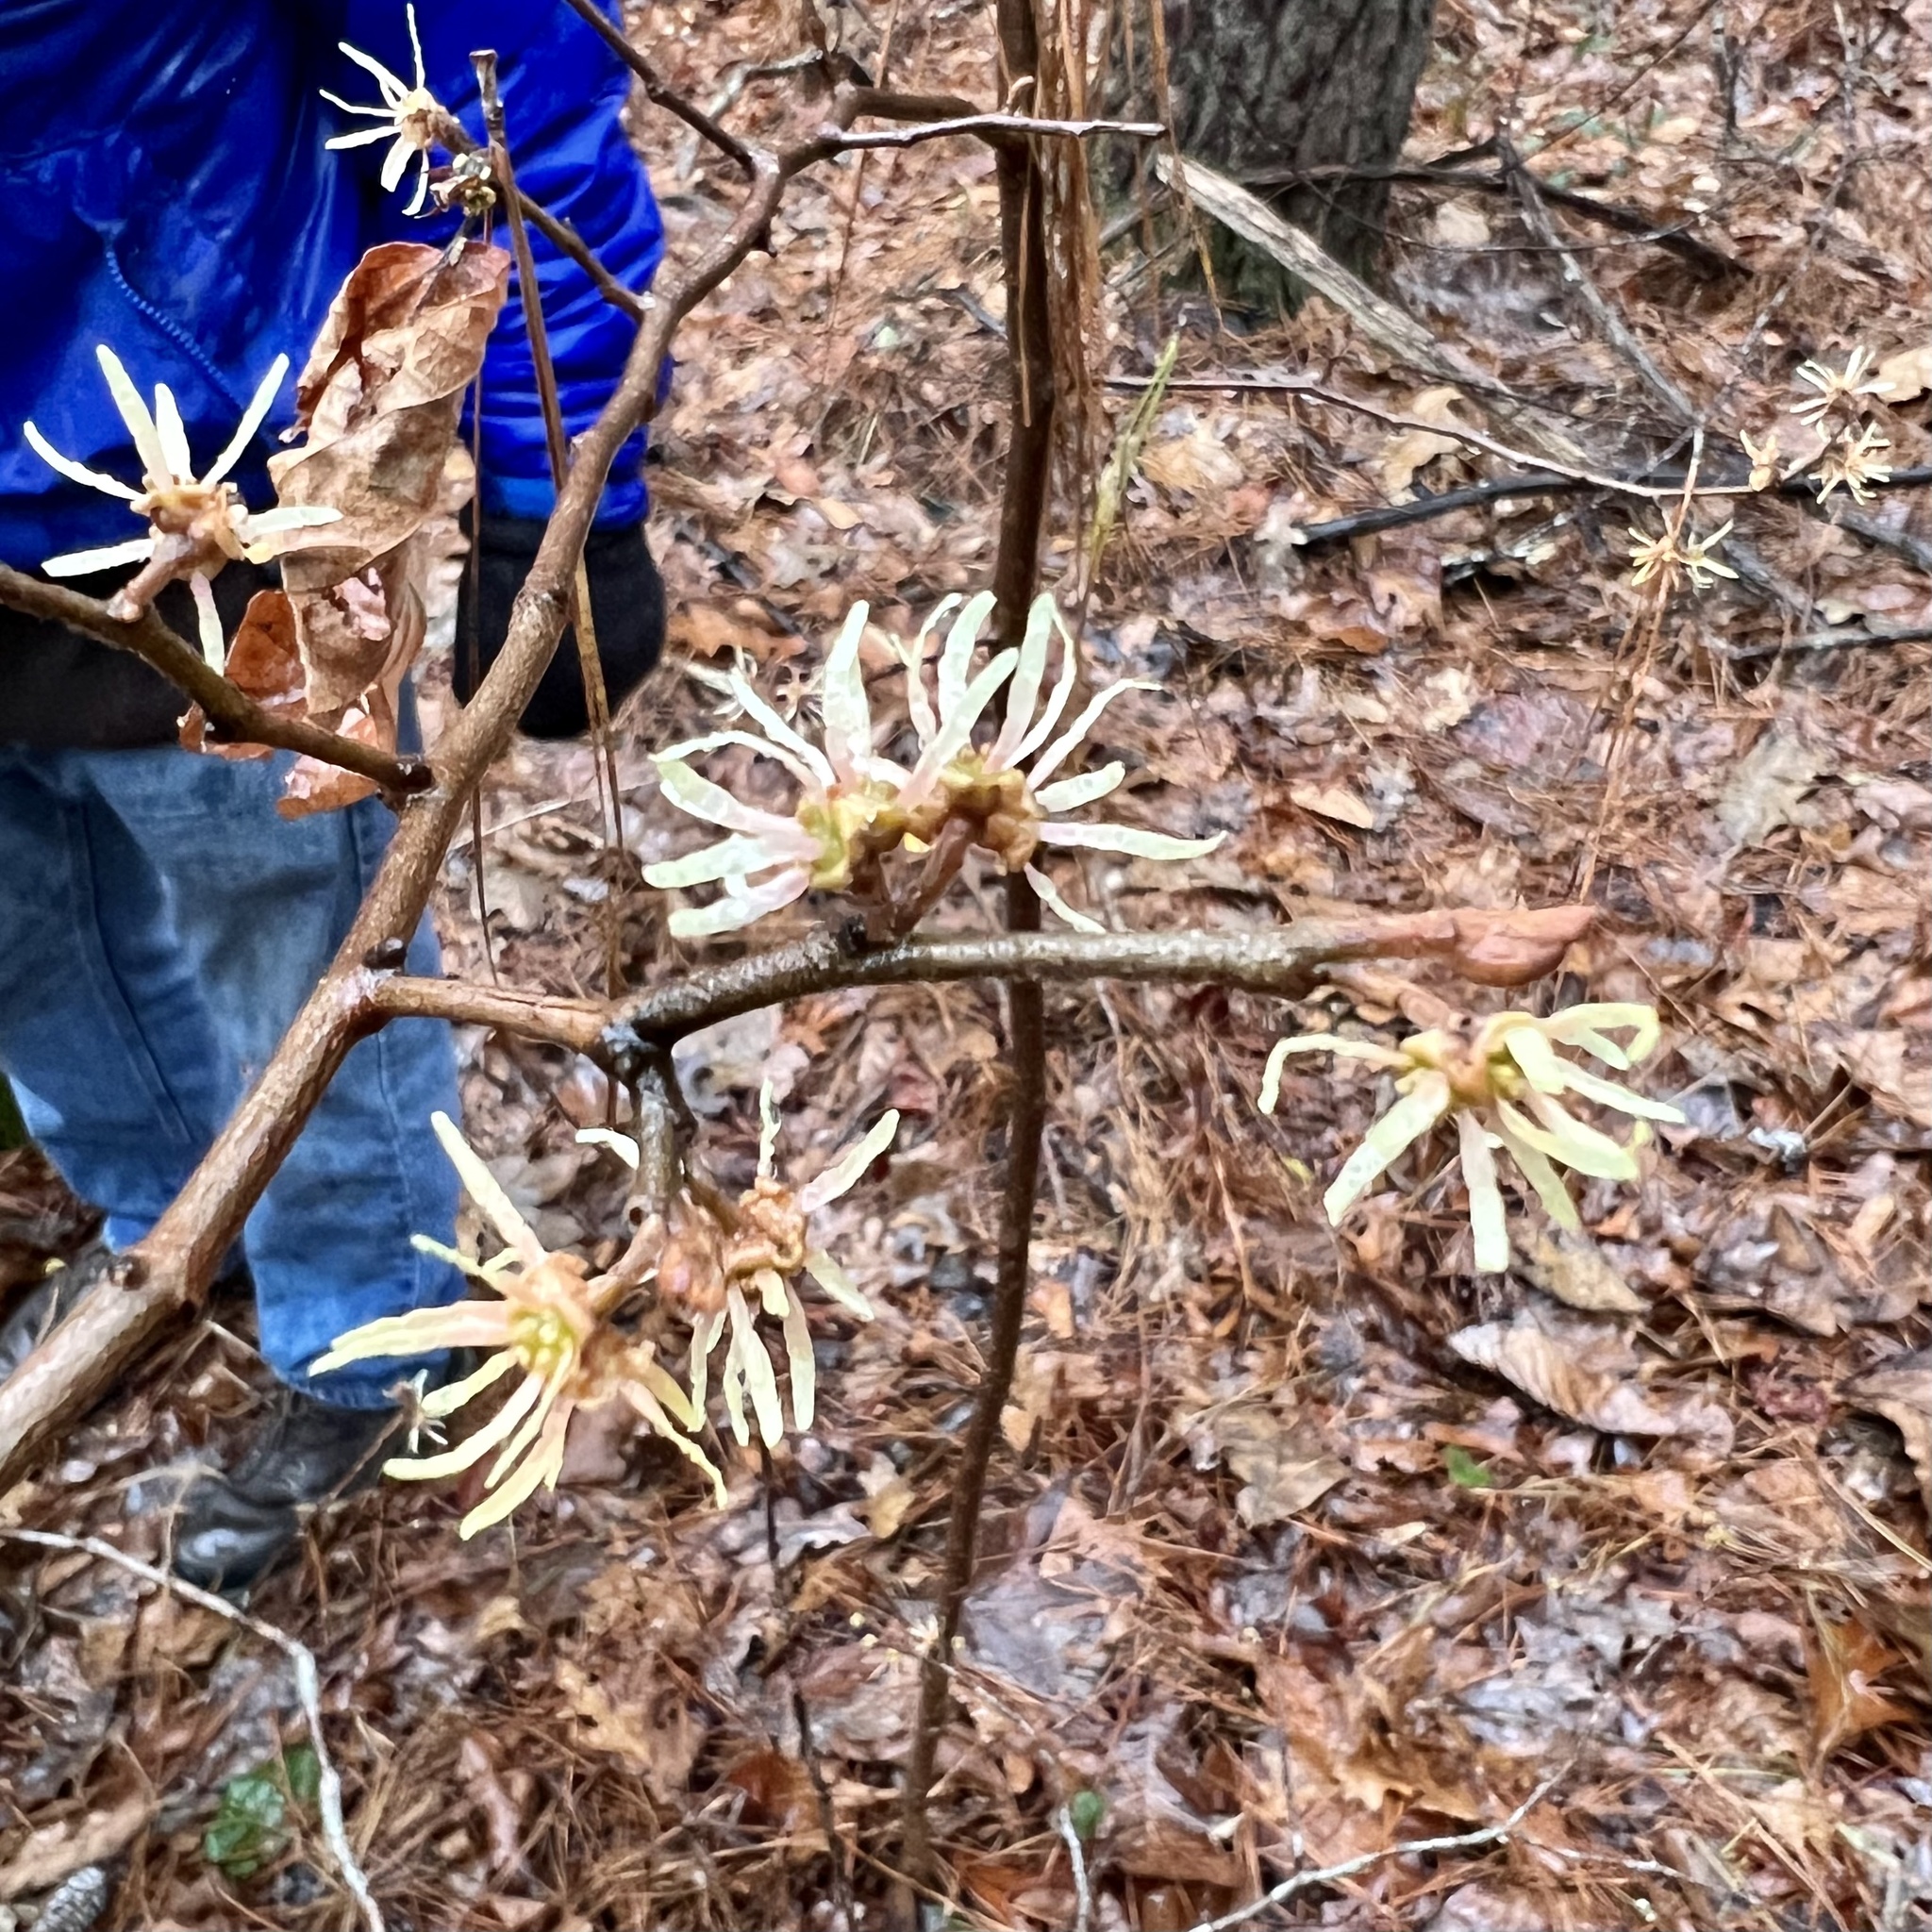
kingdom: Plantae
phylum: Tracheophyta
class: Magnoliopsida
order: Saxifragales
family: Hamamelidaceae
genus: Hamamelis
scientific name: Hamamelis virginiana
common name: Witch-hazel
